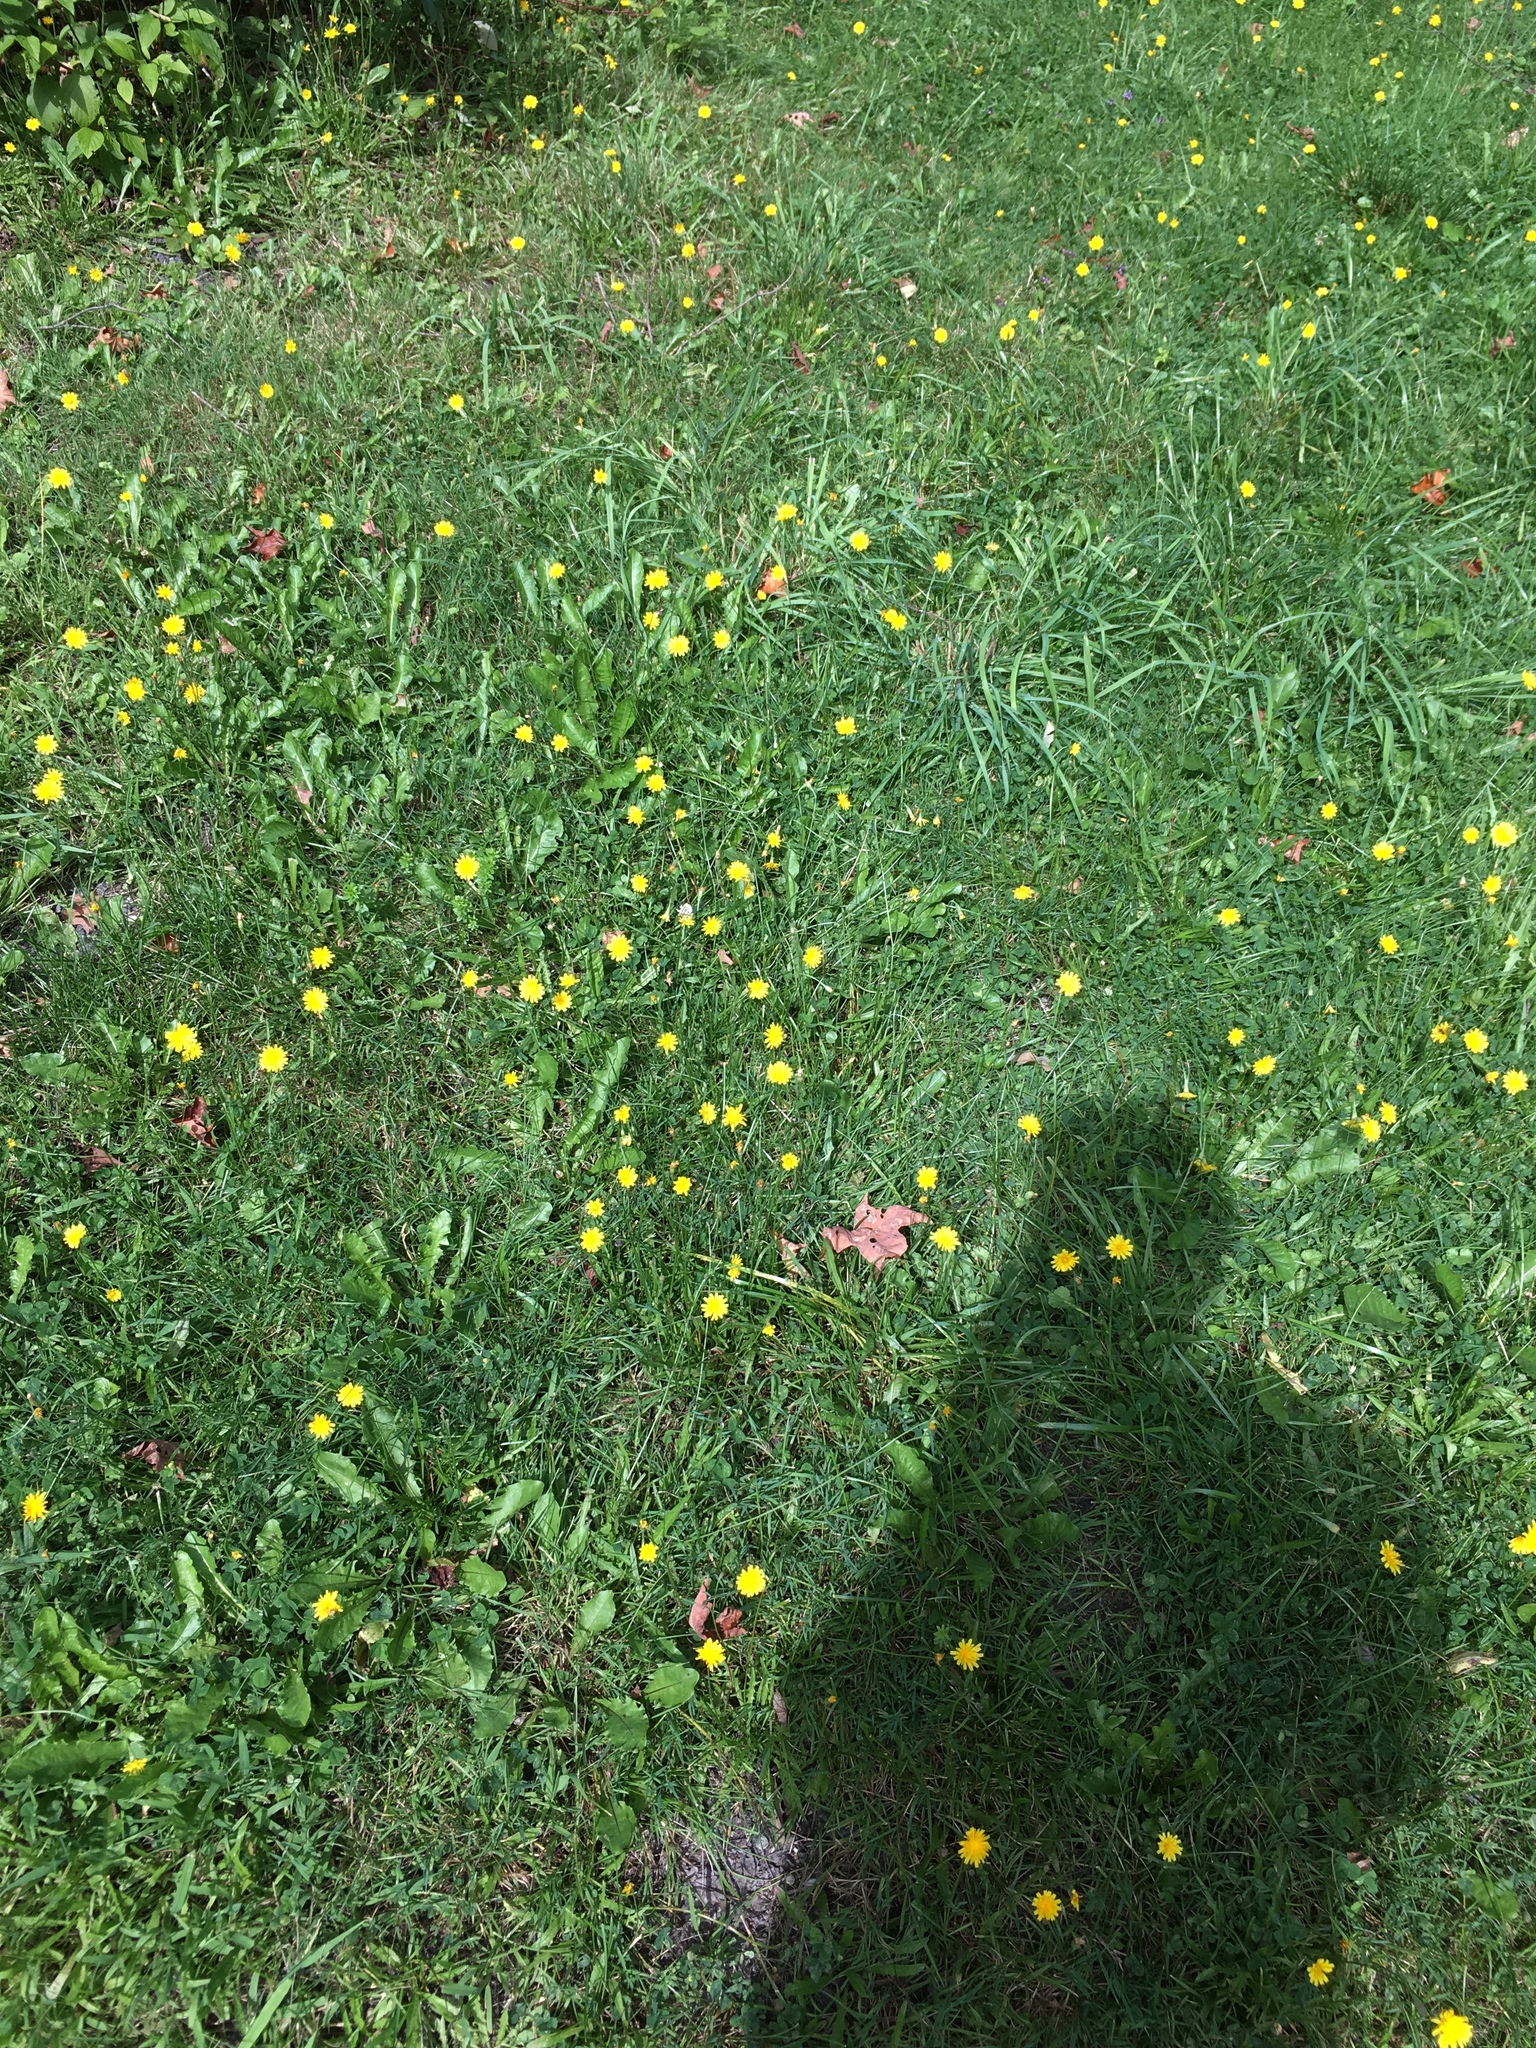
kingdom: Plantae
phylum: Tracheophyta
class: Magnoliopsida
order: Asterales
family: Asteraceae
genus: Scorzoneroides
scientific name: Scorzoneroides autumnalis
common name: Autumn hawkbit
